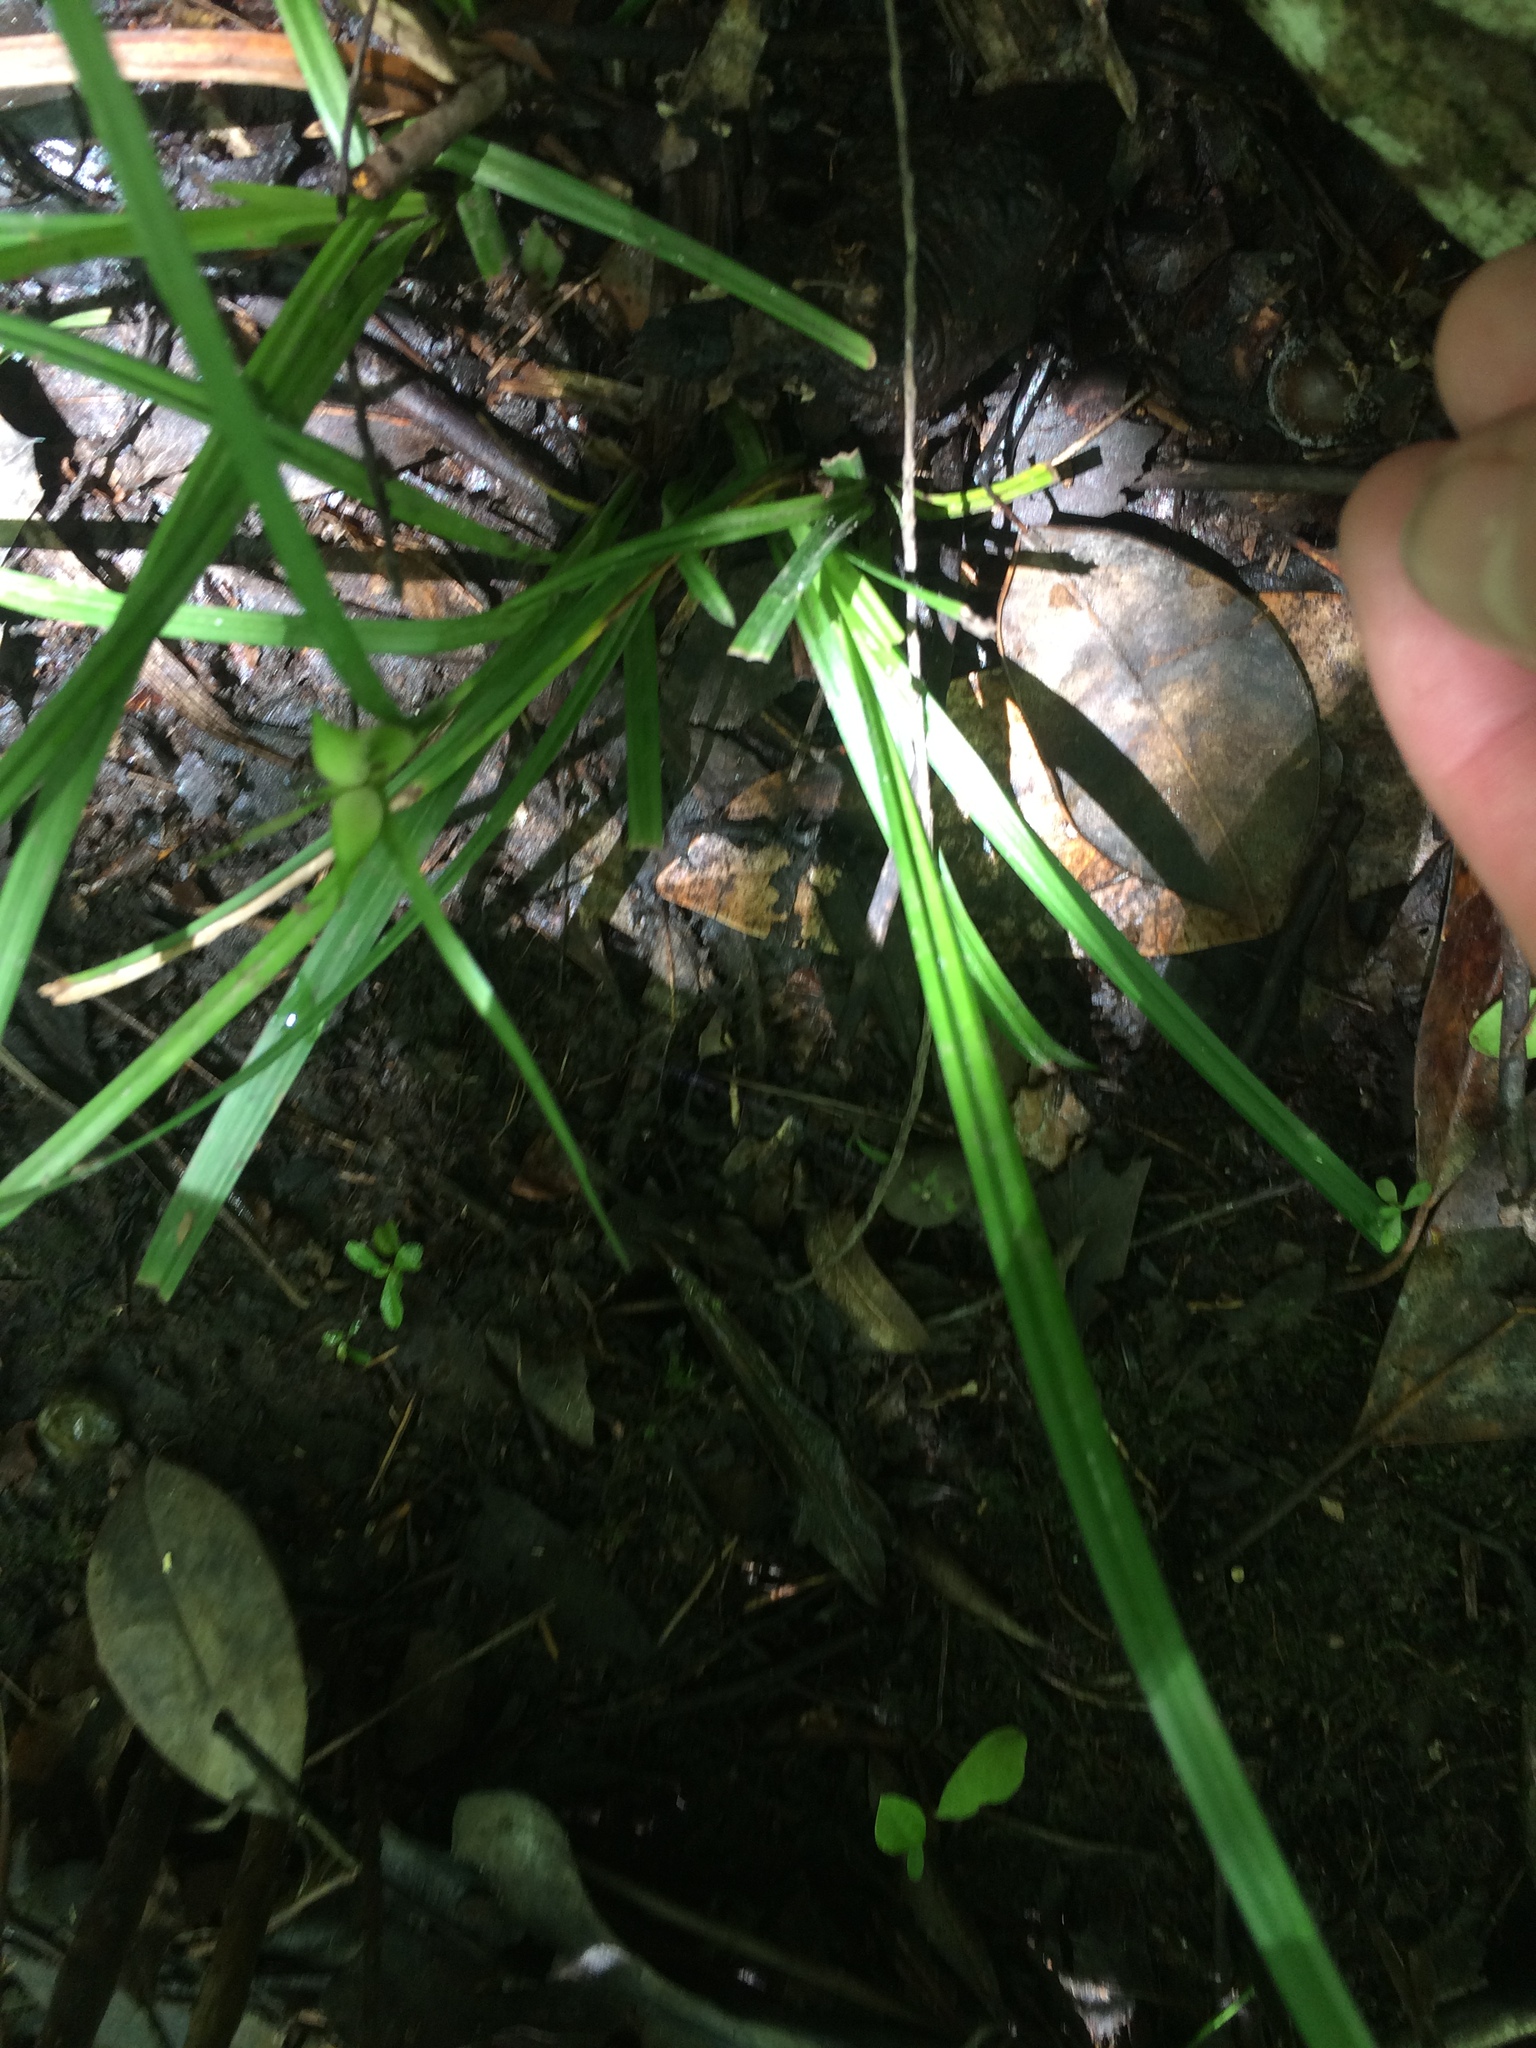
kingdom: Plantae
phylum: Tracheophyta
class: Liliopsida
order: Poales
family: Cyperaceae
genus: Carex
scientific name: Carex intumescens
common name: Greater bladder sedge
